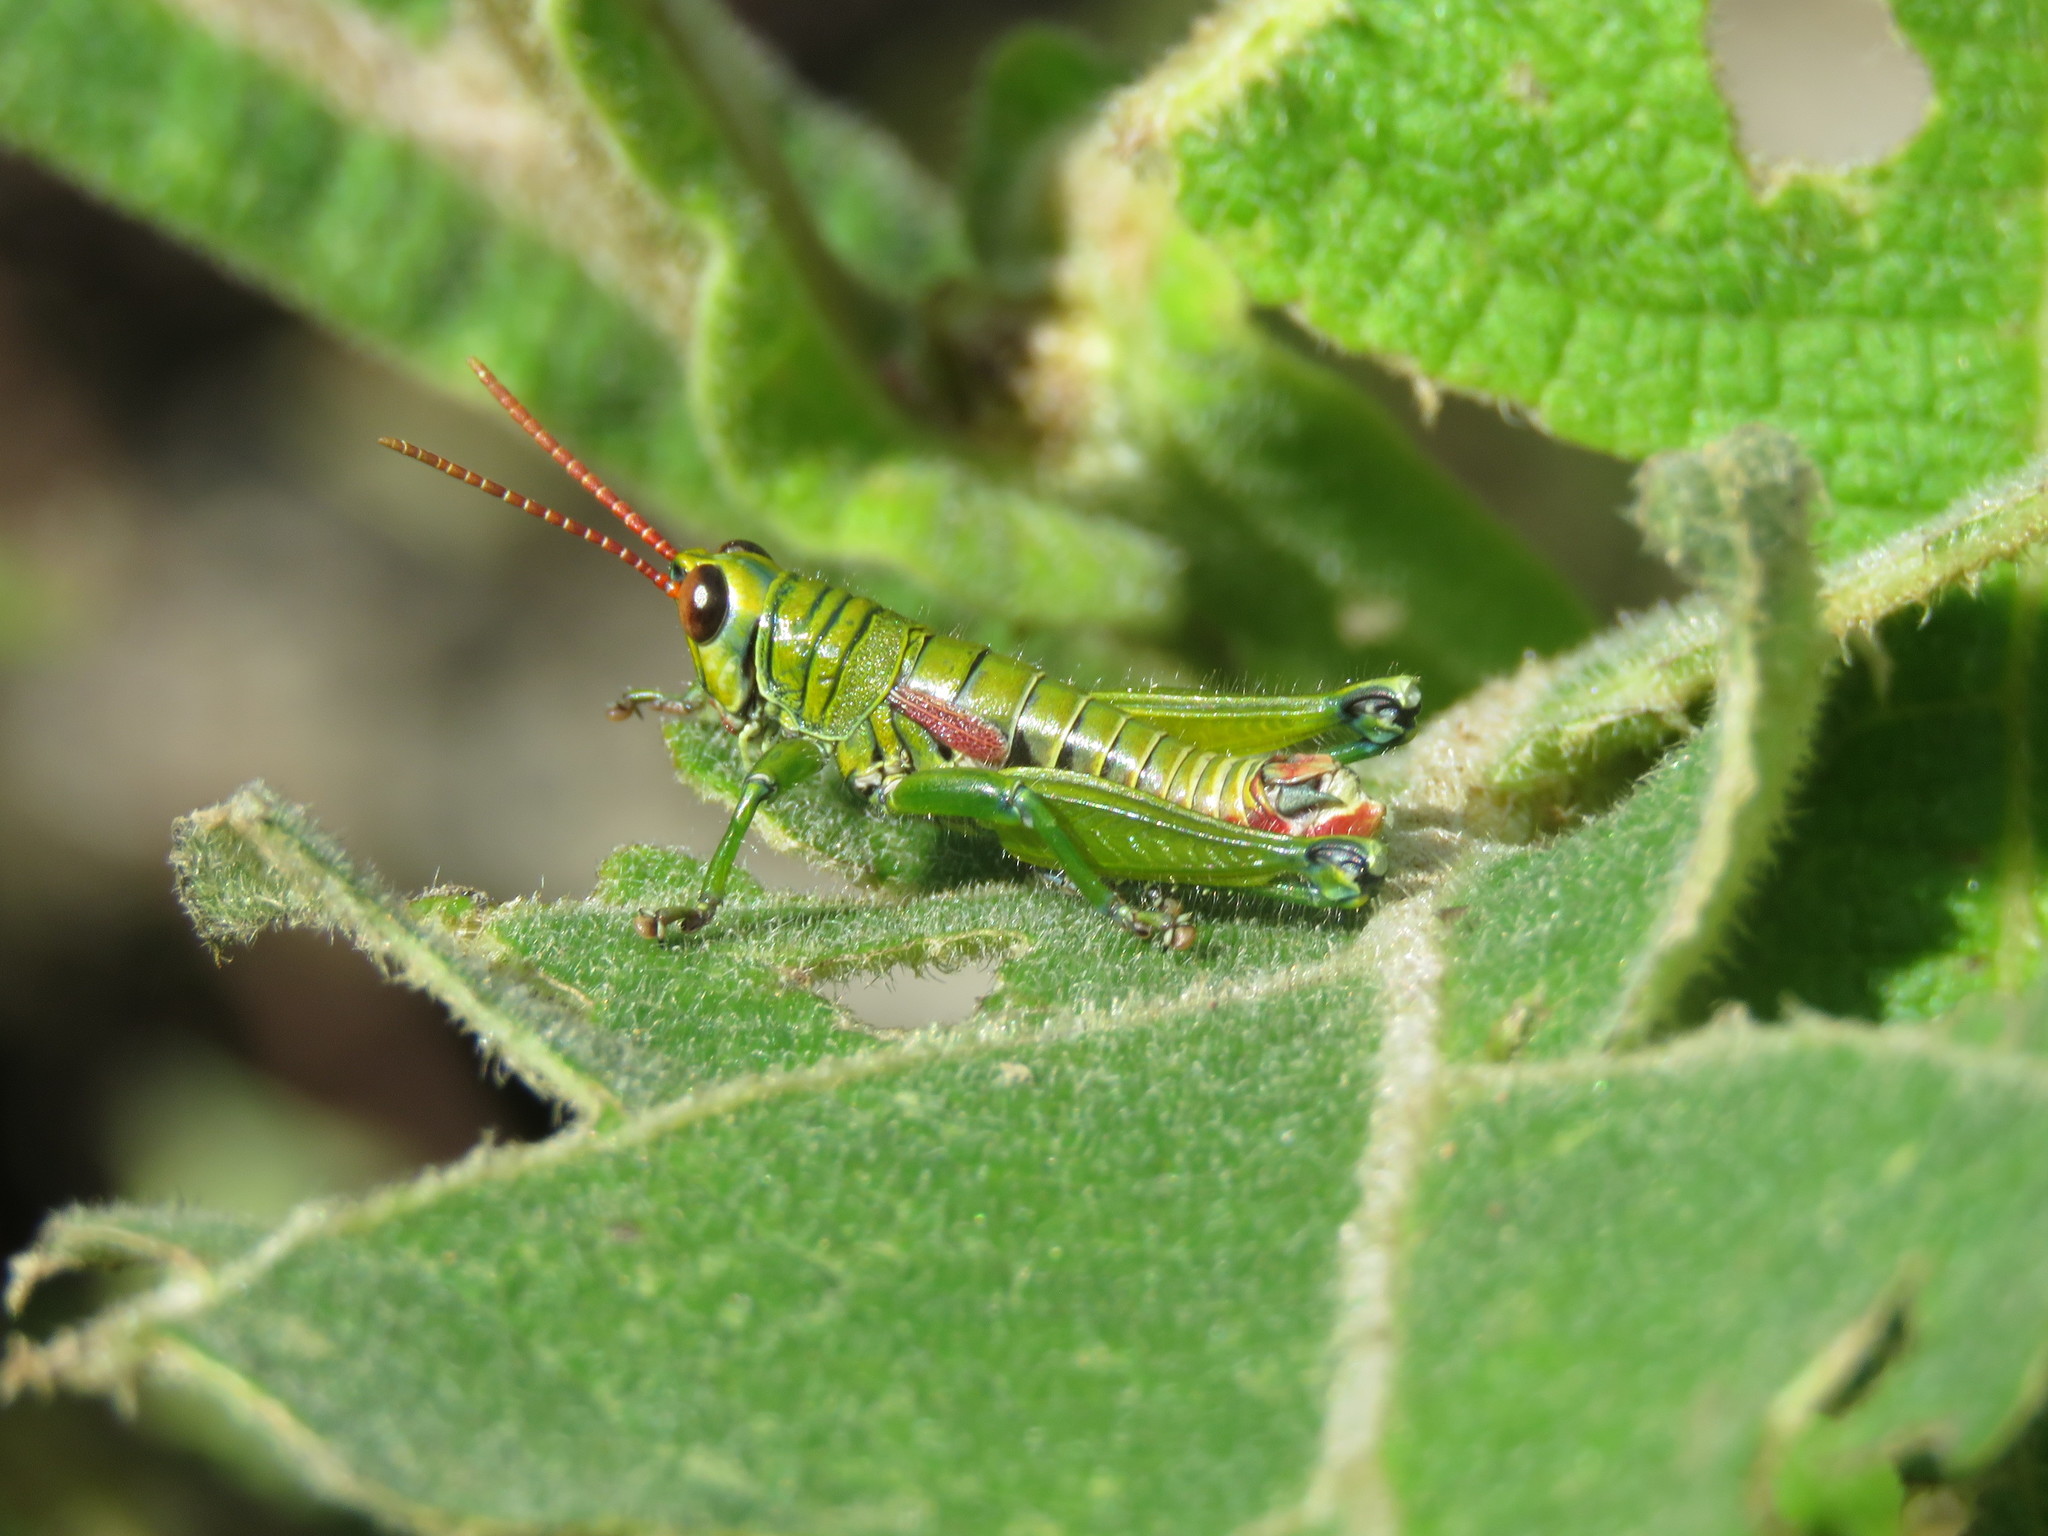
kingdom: Animalia
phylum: Arthropoda
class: Insecta
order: Orthoptera
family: Acrididae
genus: Agesander
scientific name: Agesander ruficornis
